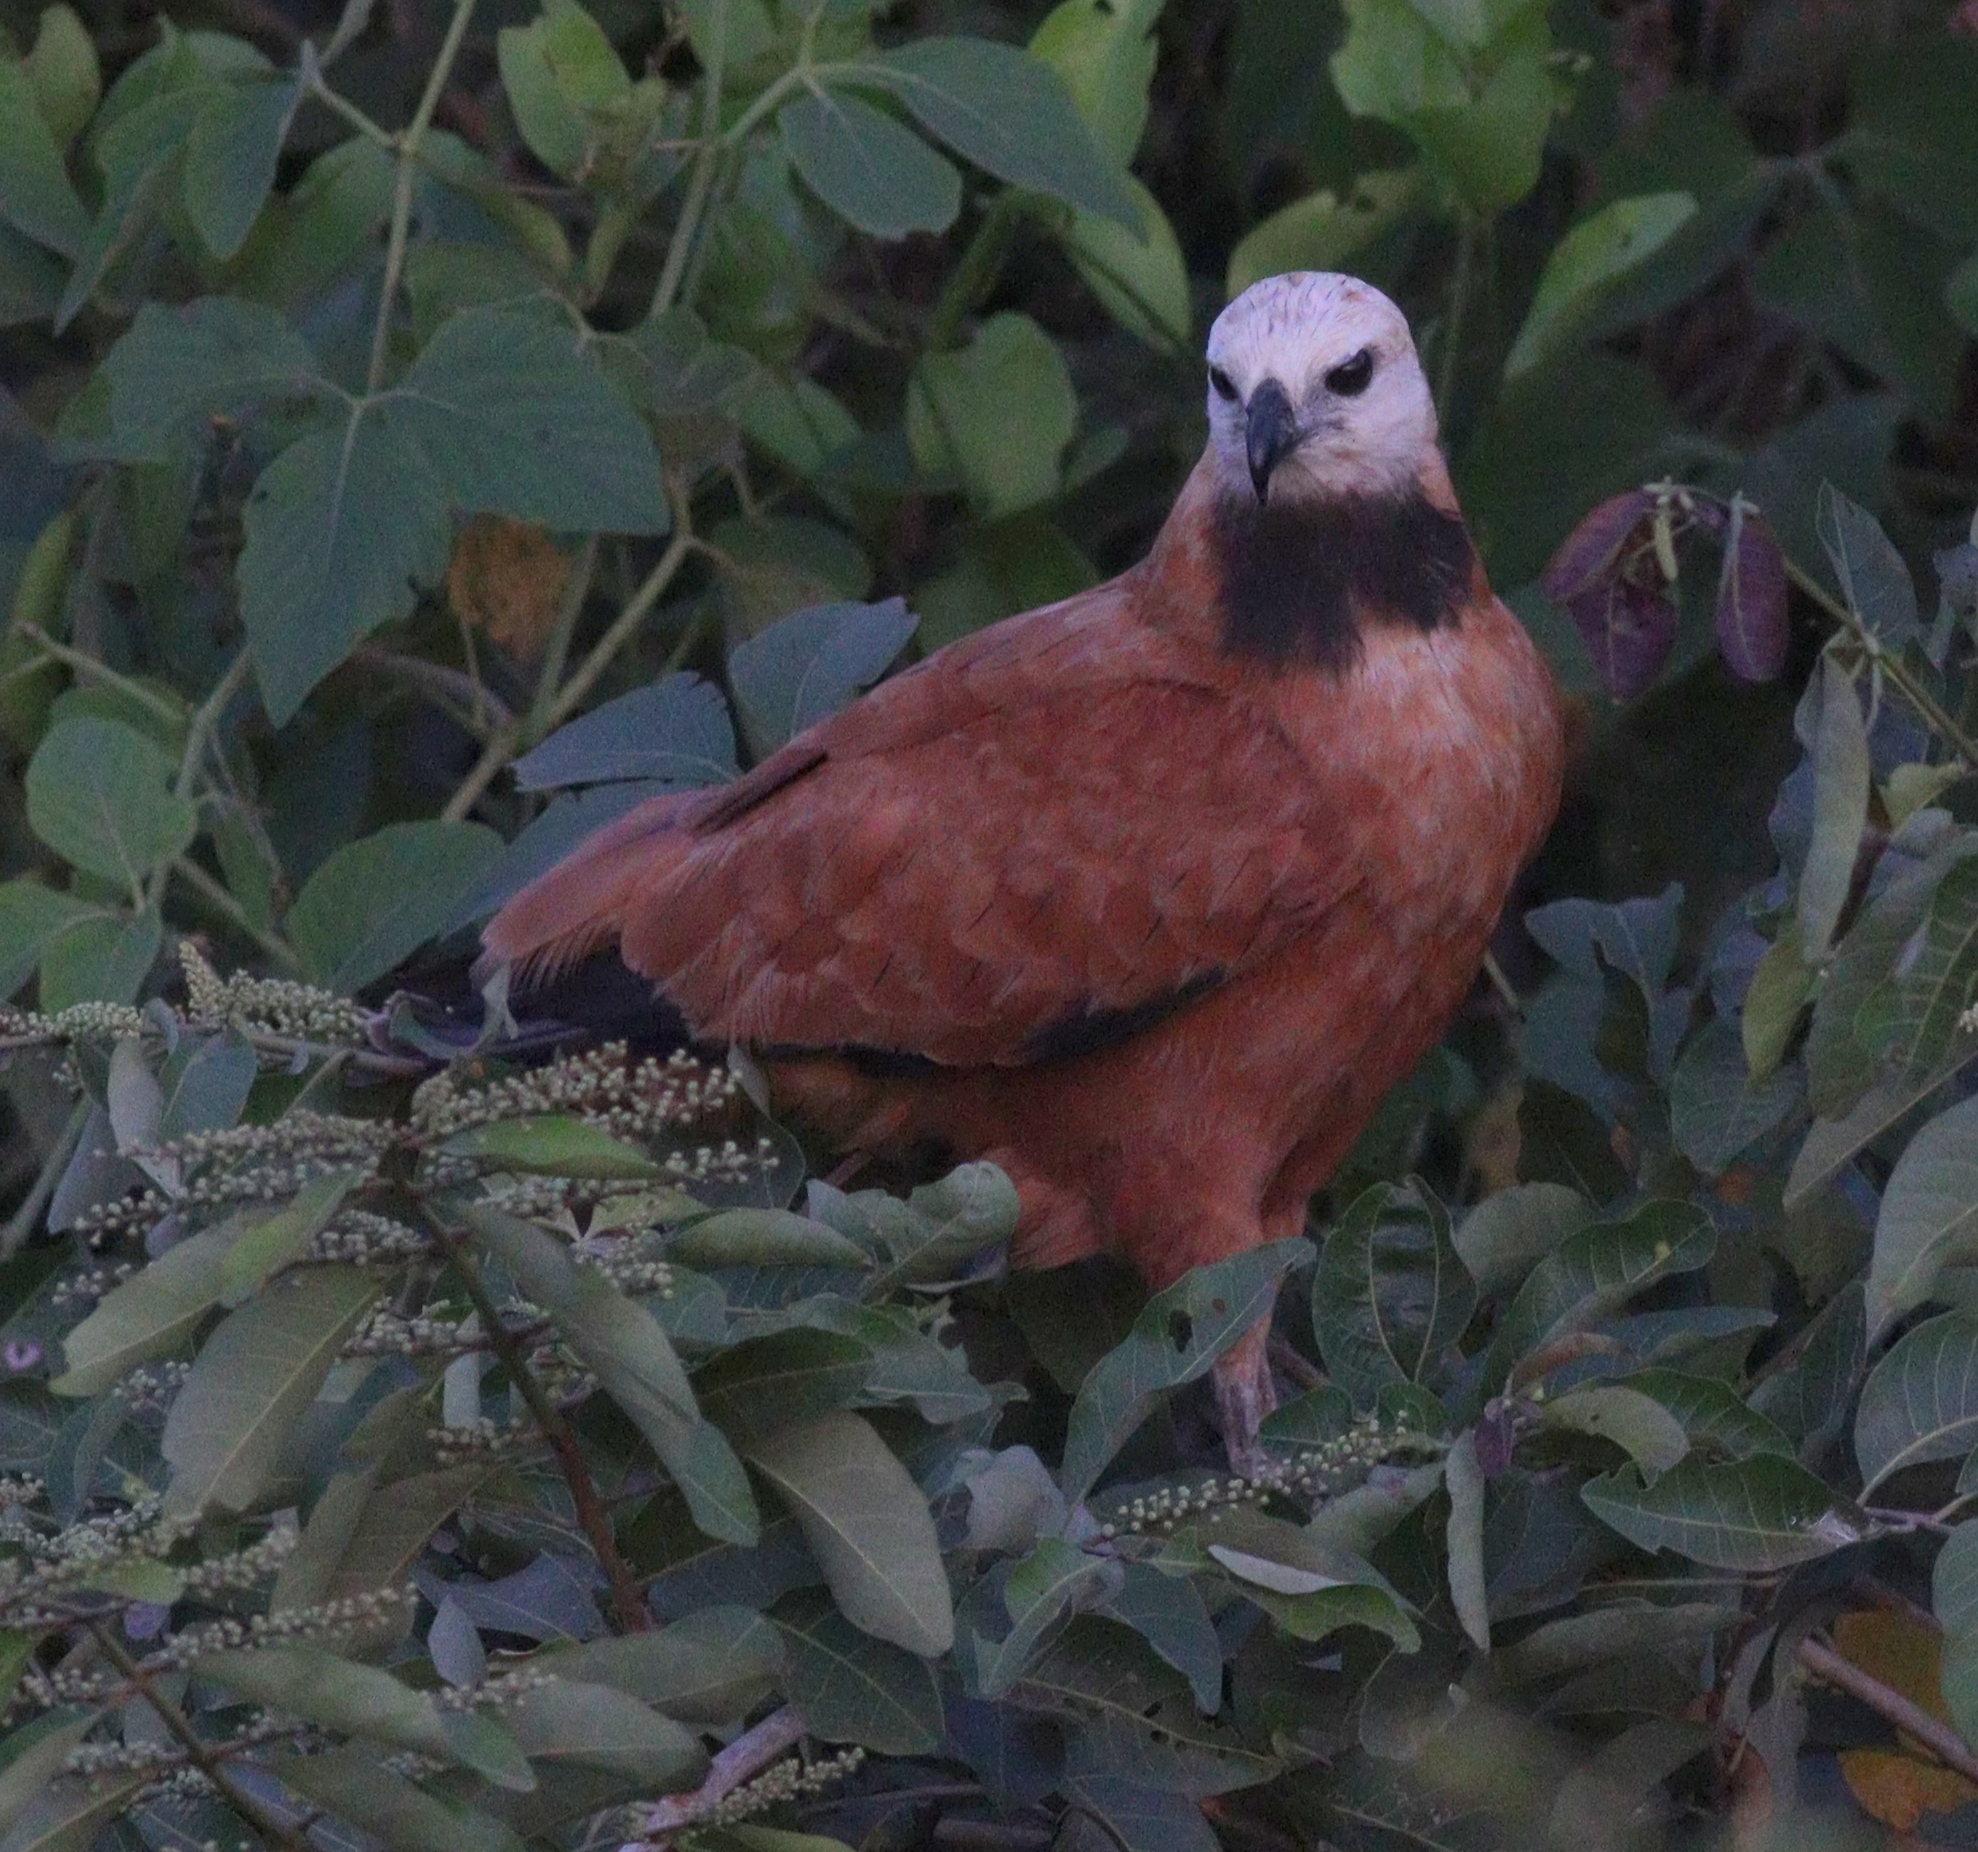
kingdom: Animalia
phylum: Chordata
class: Aves
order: Accipitriformes
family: Accipitridae
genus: Busarellus
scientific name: Busarellus nigricollis
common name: Black-collared hawk
